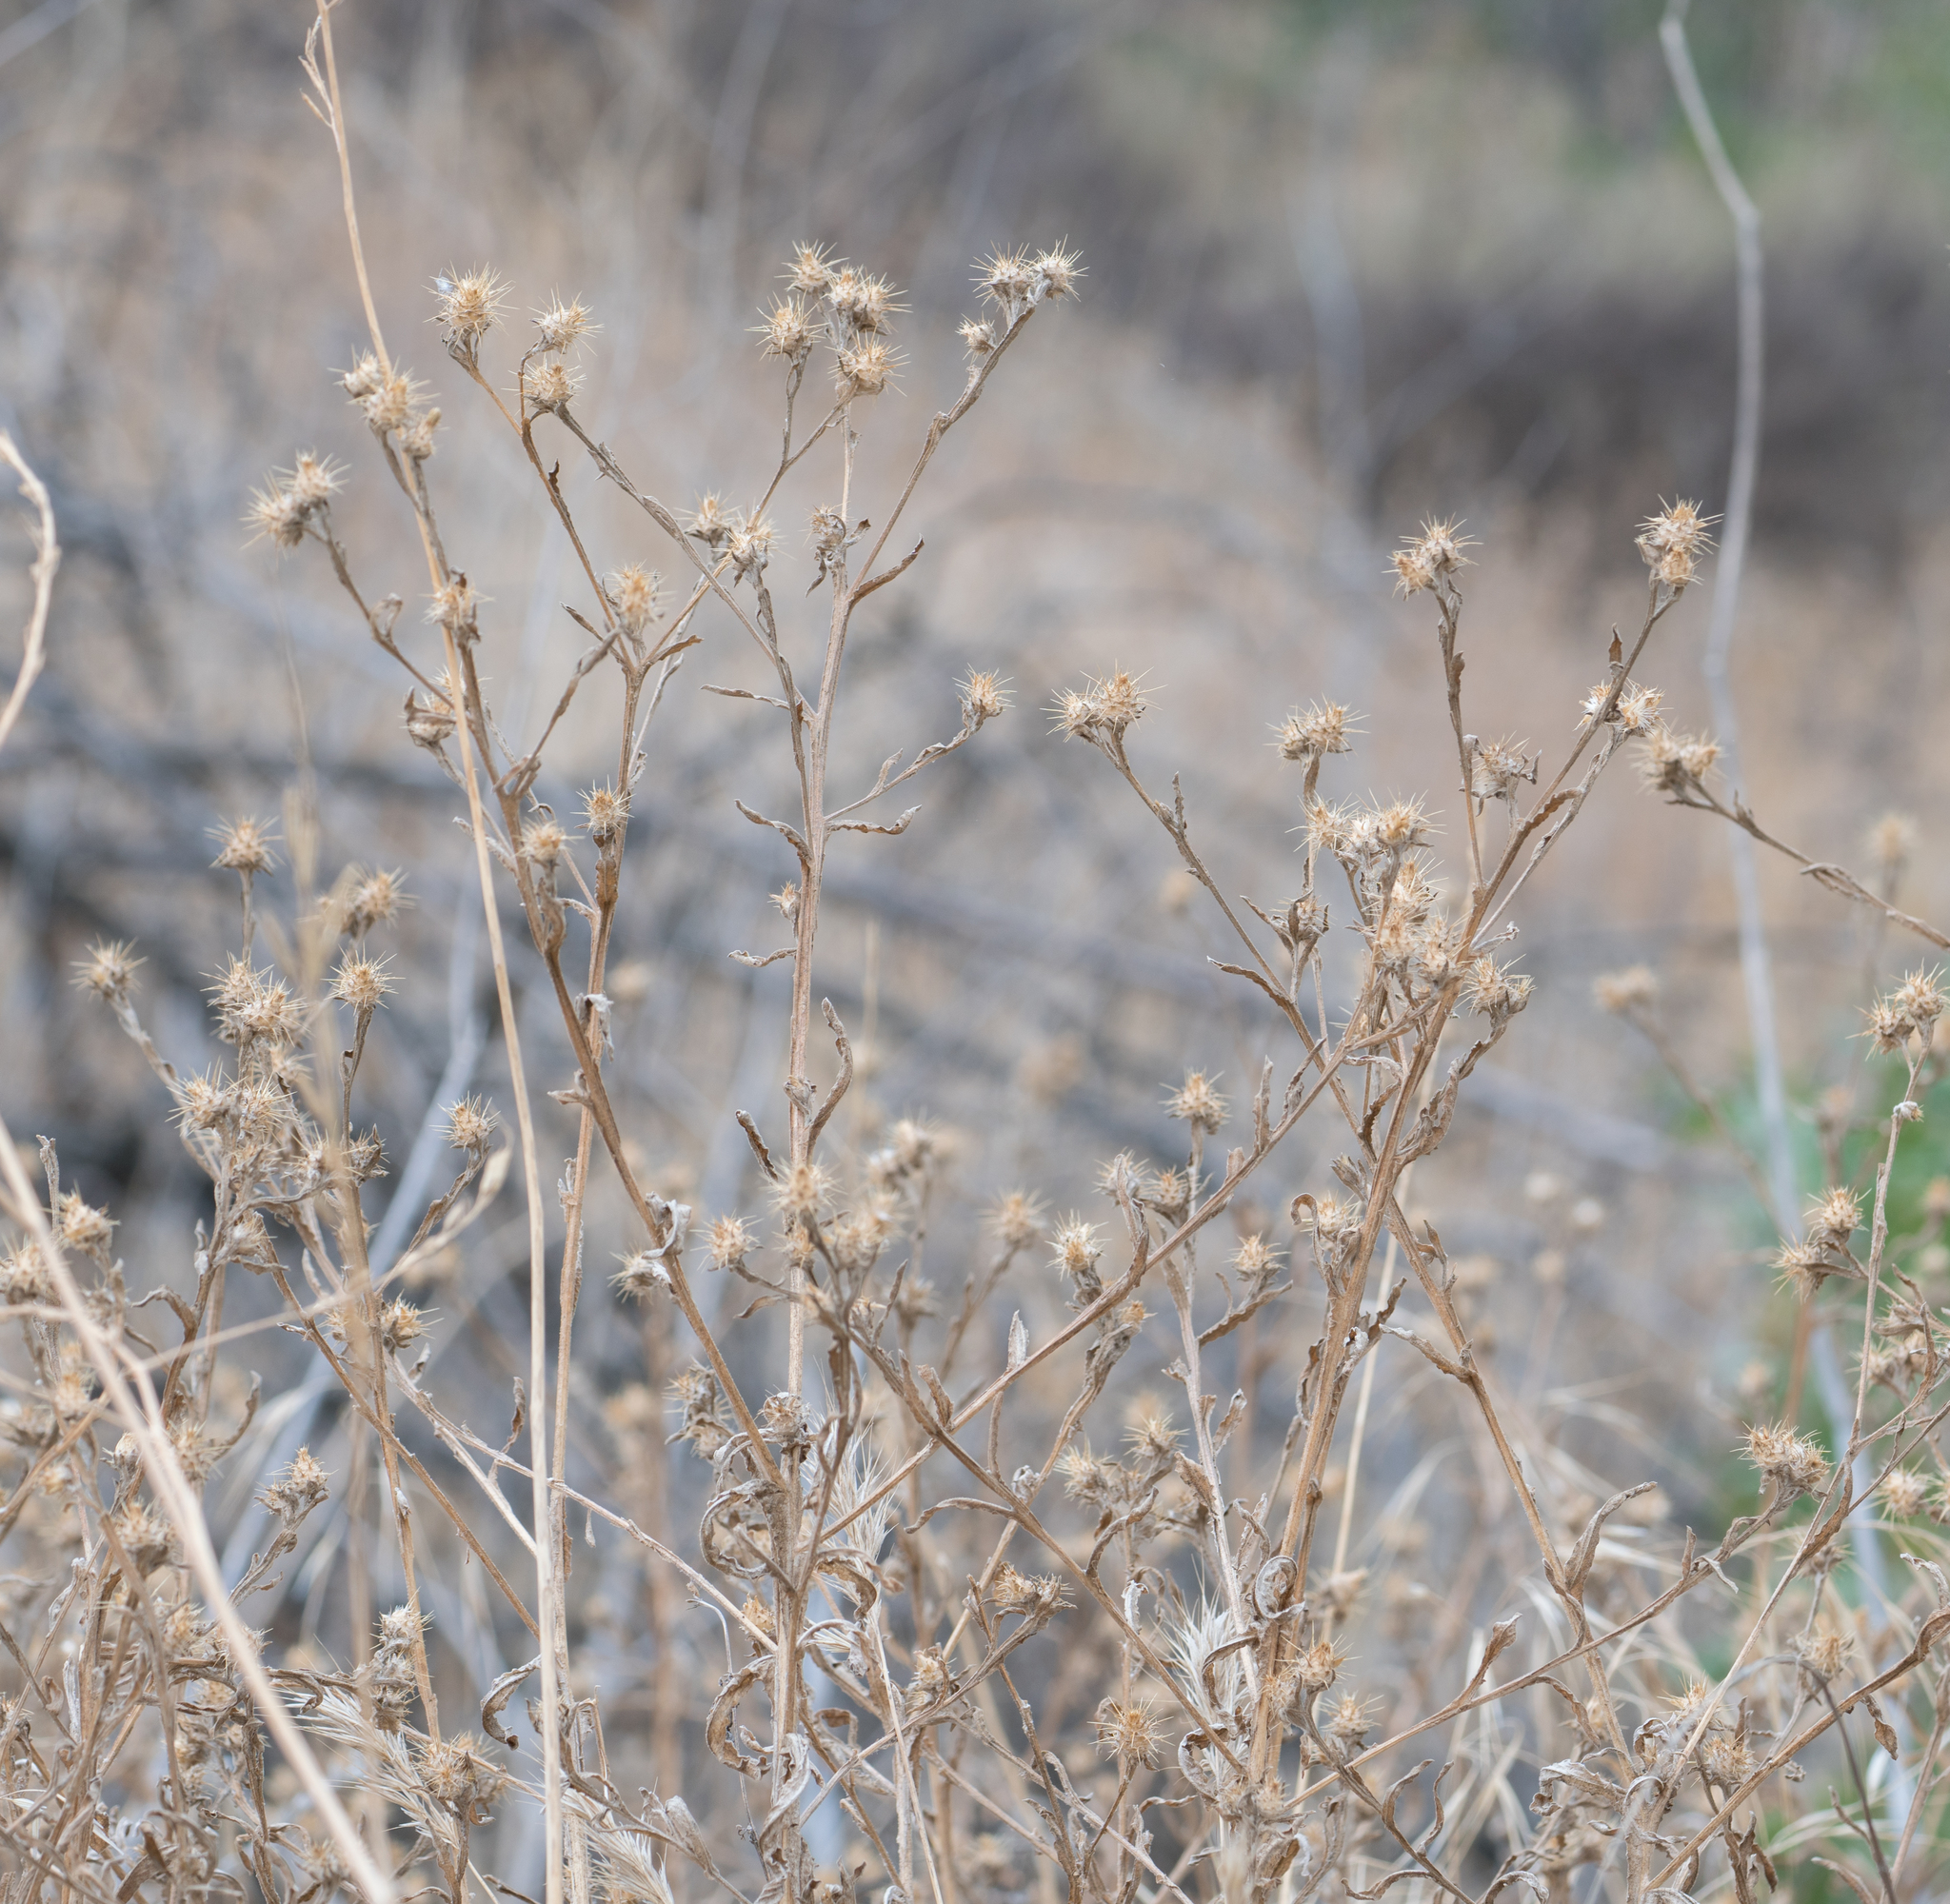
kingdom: Plantae
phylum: Tracheophyta
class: Magnoliopsida
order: Asterales
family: Asteraceae
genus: Centaurea
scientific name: Centaurea melitensis
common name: Maltese star-thistle
